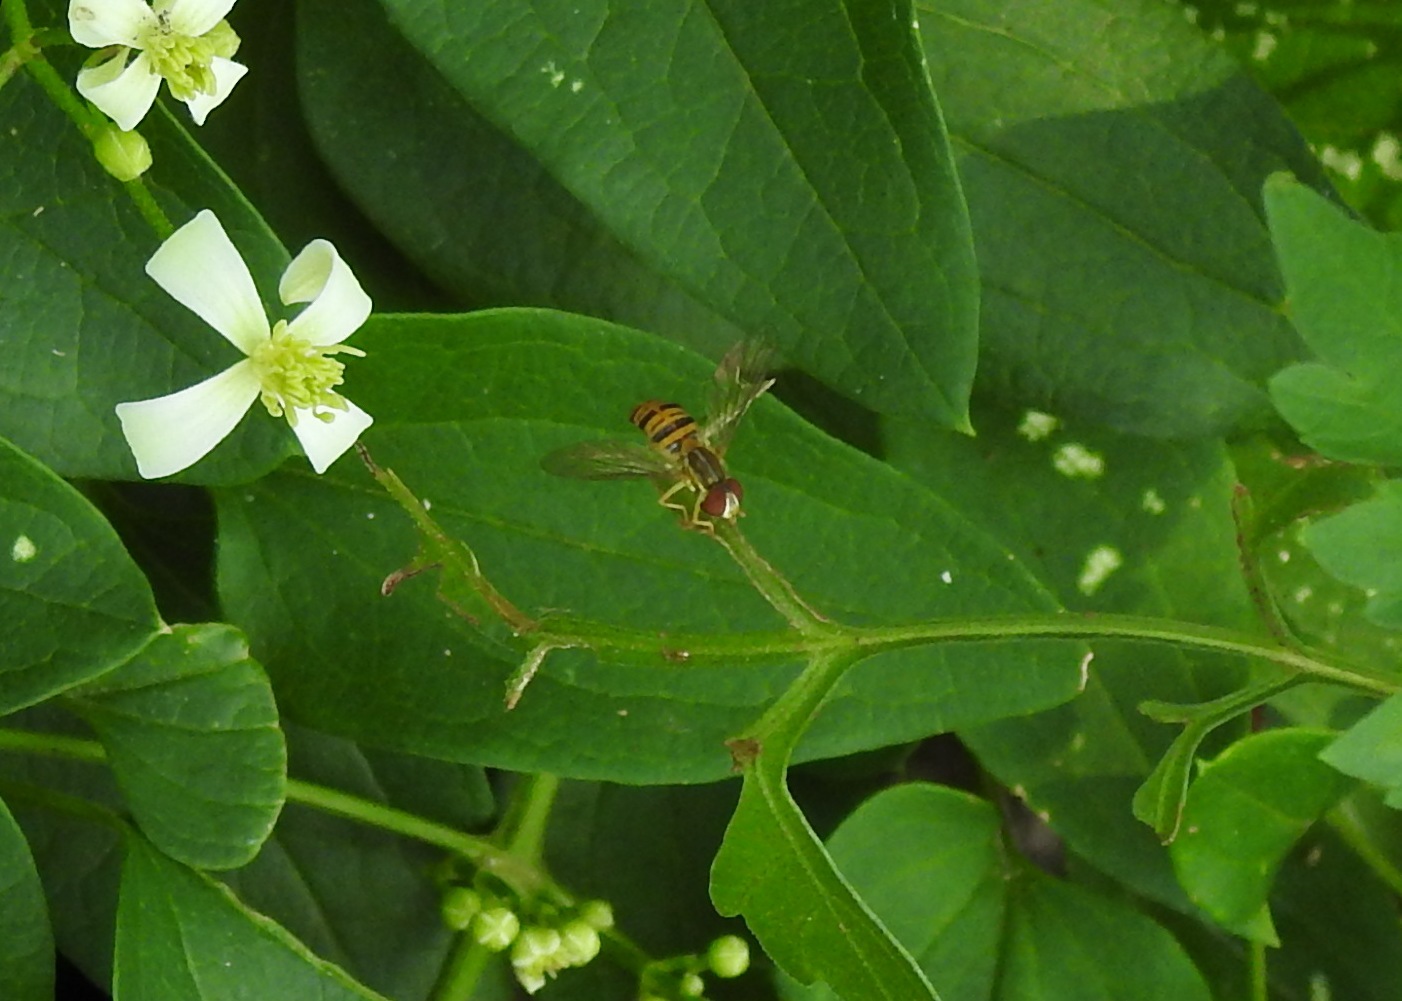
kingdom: Animalia
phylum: Arthropoda
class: Insecta
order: Diptera
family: Syrphidae
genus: Toxomerus
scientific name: Toxomerus politus
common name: Maize calligrapher
